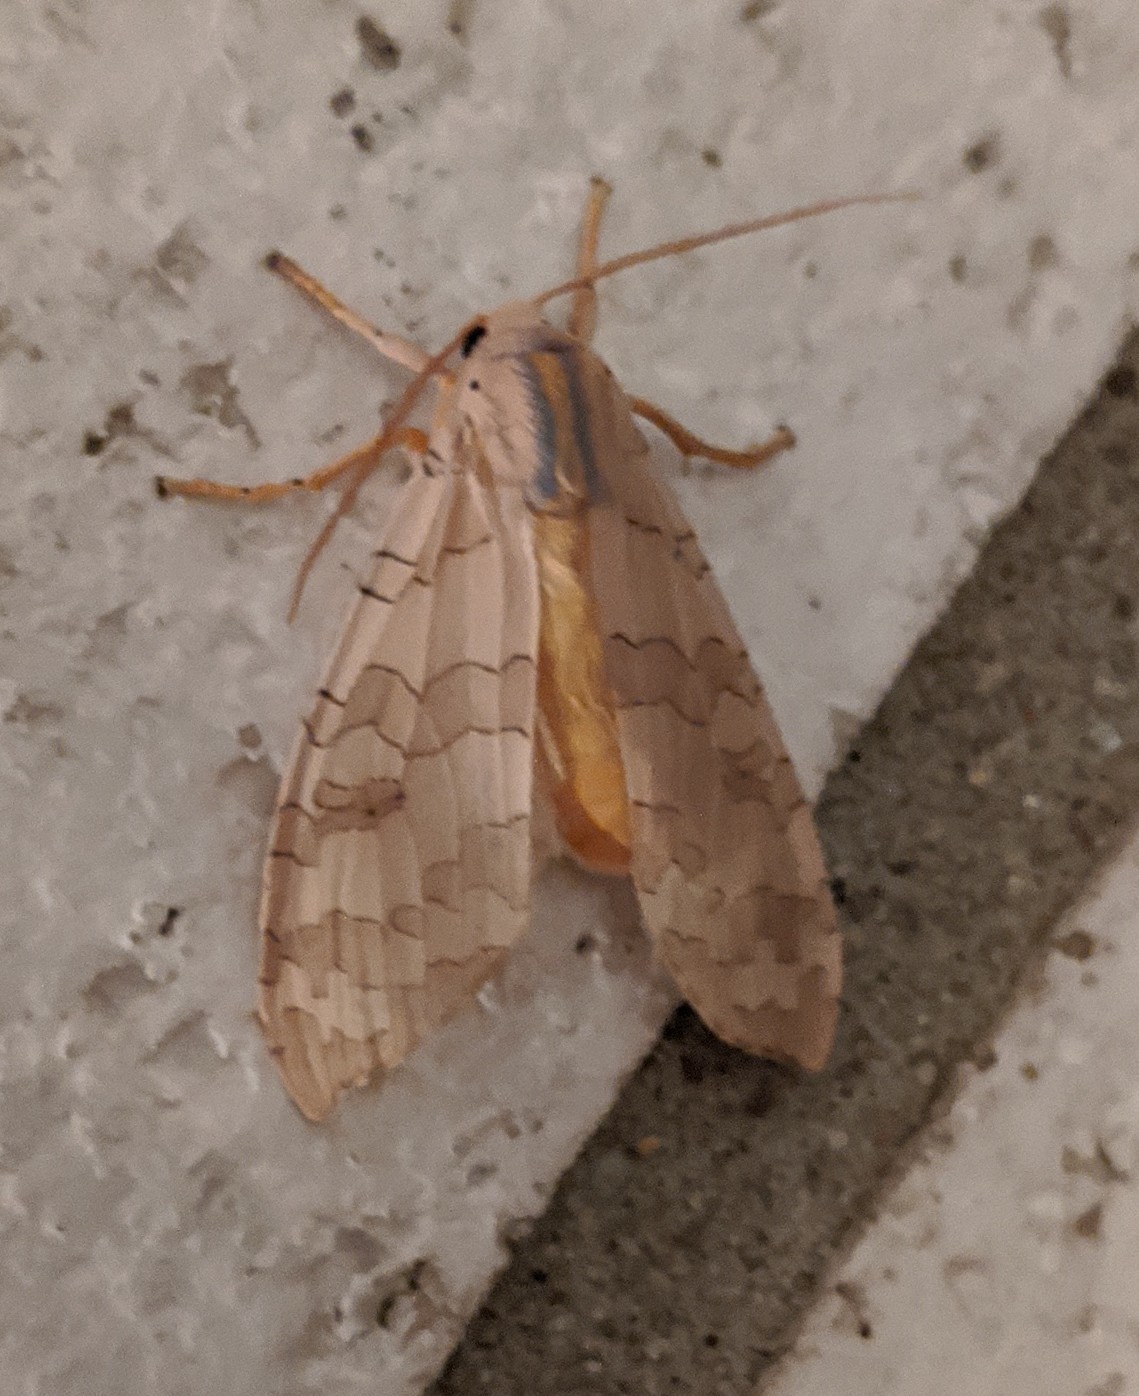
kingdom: Animalia
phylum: Arthropoda
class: Insecta
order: Lepidoptera
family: Erebidae
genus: Halysidota
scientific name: Halysidota
